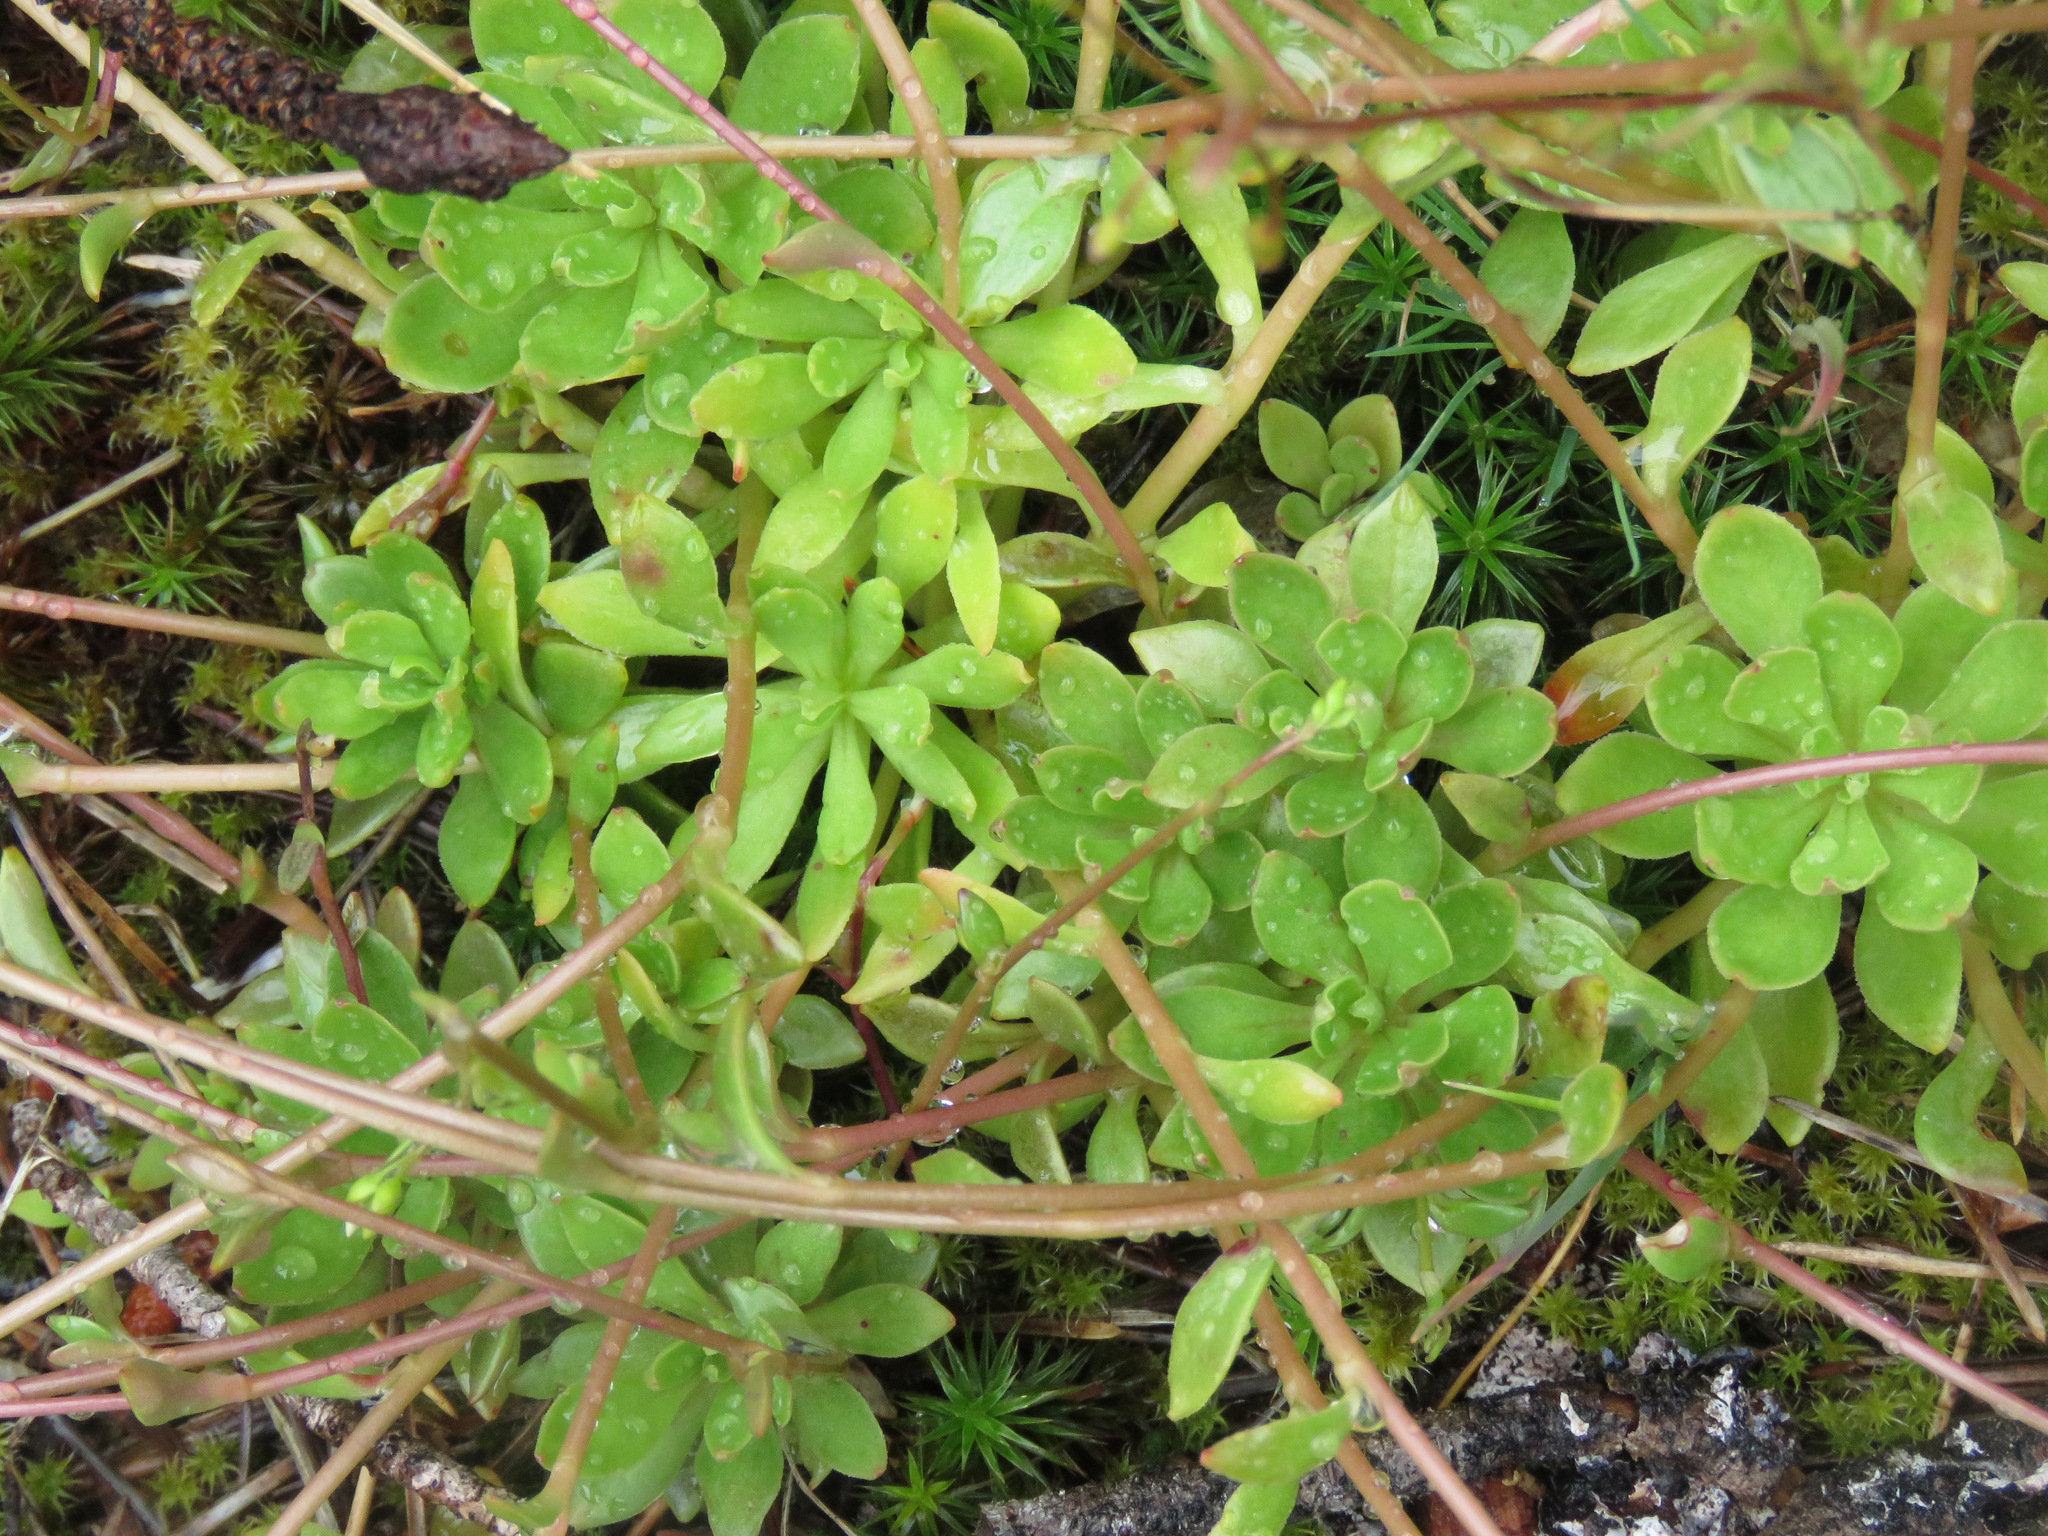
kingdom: Plantae
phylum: Tracheophyta
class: Magnoliopsida
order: Caryophyllales
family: Montiaceae
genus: Montia
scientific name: Montia parvifolia
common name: Small-leaved blinks
